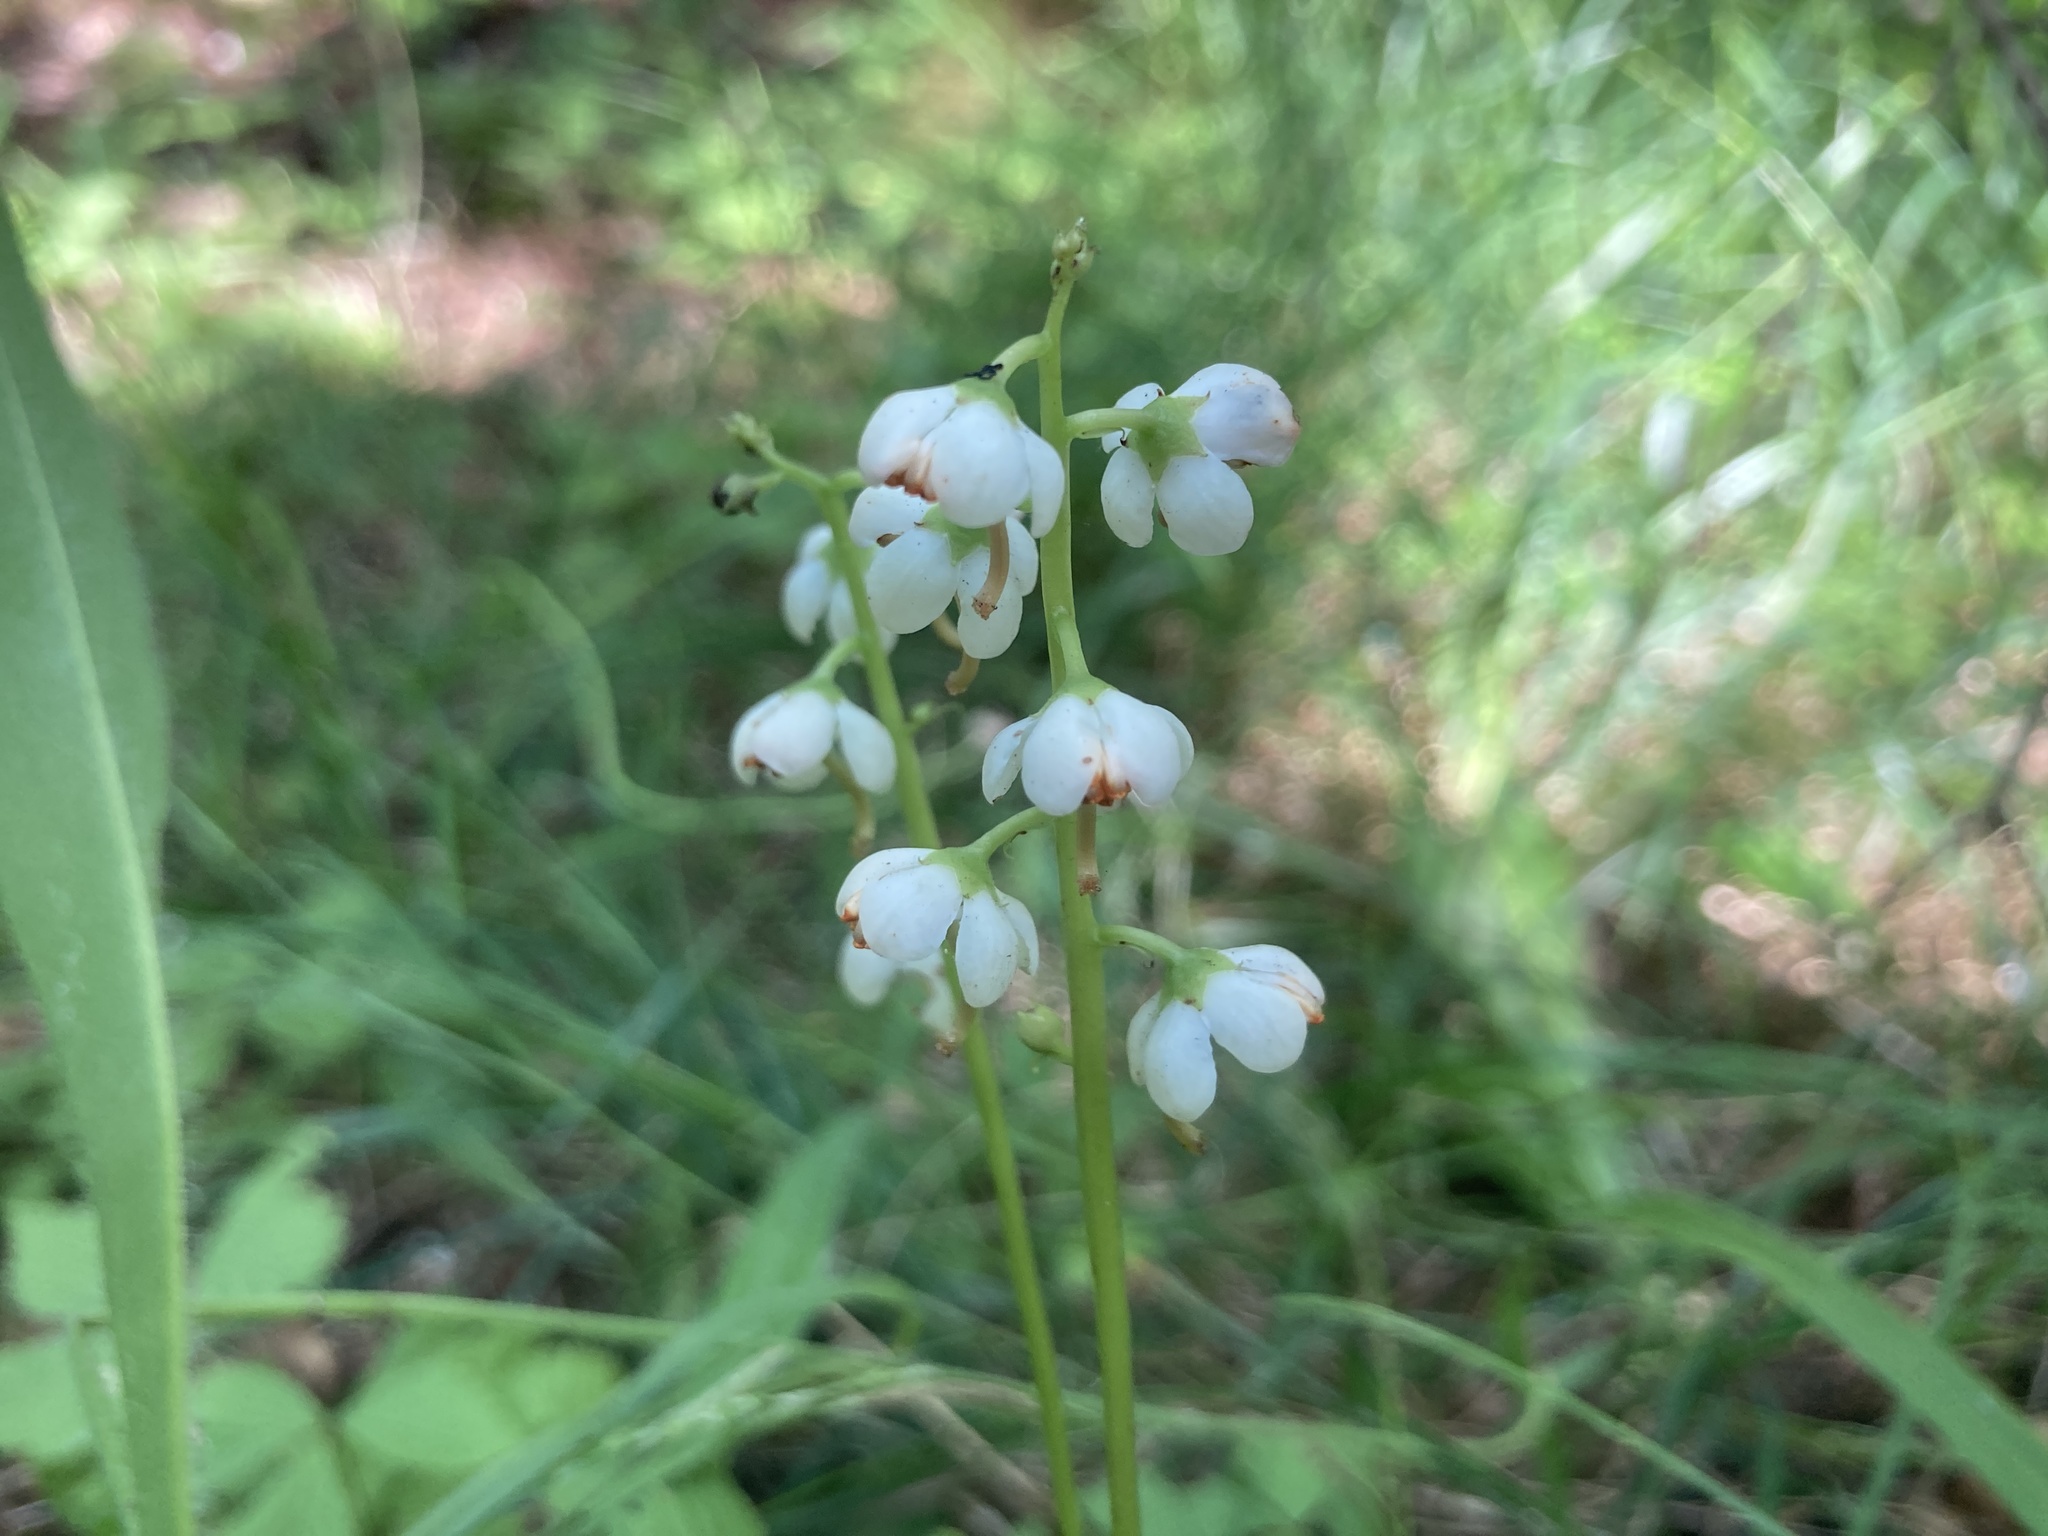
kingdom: Plantae
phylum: Tracheophyta
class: Magnoliopsida
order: Ericales
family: Ericaceae
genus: Pyrola
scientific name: Pyrola elliptica
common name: Shinleaf
